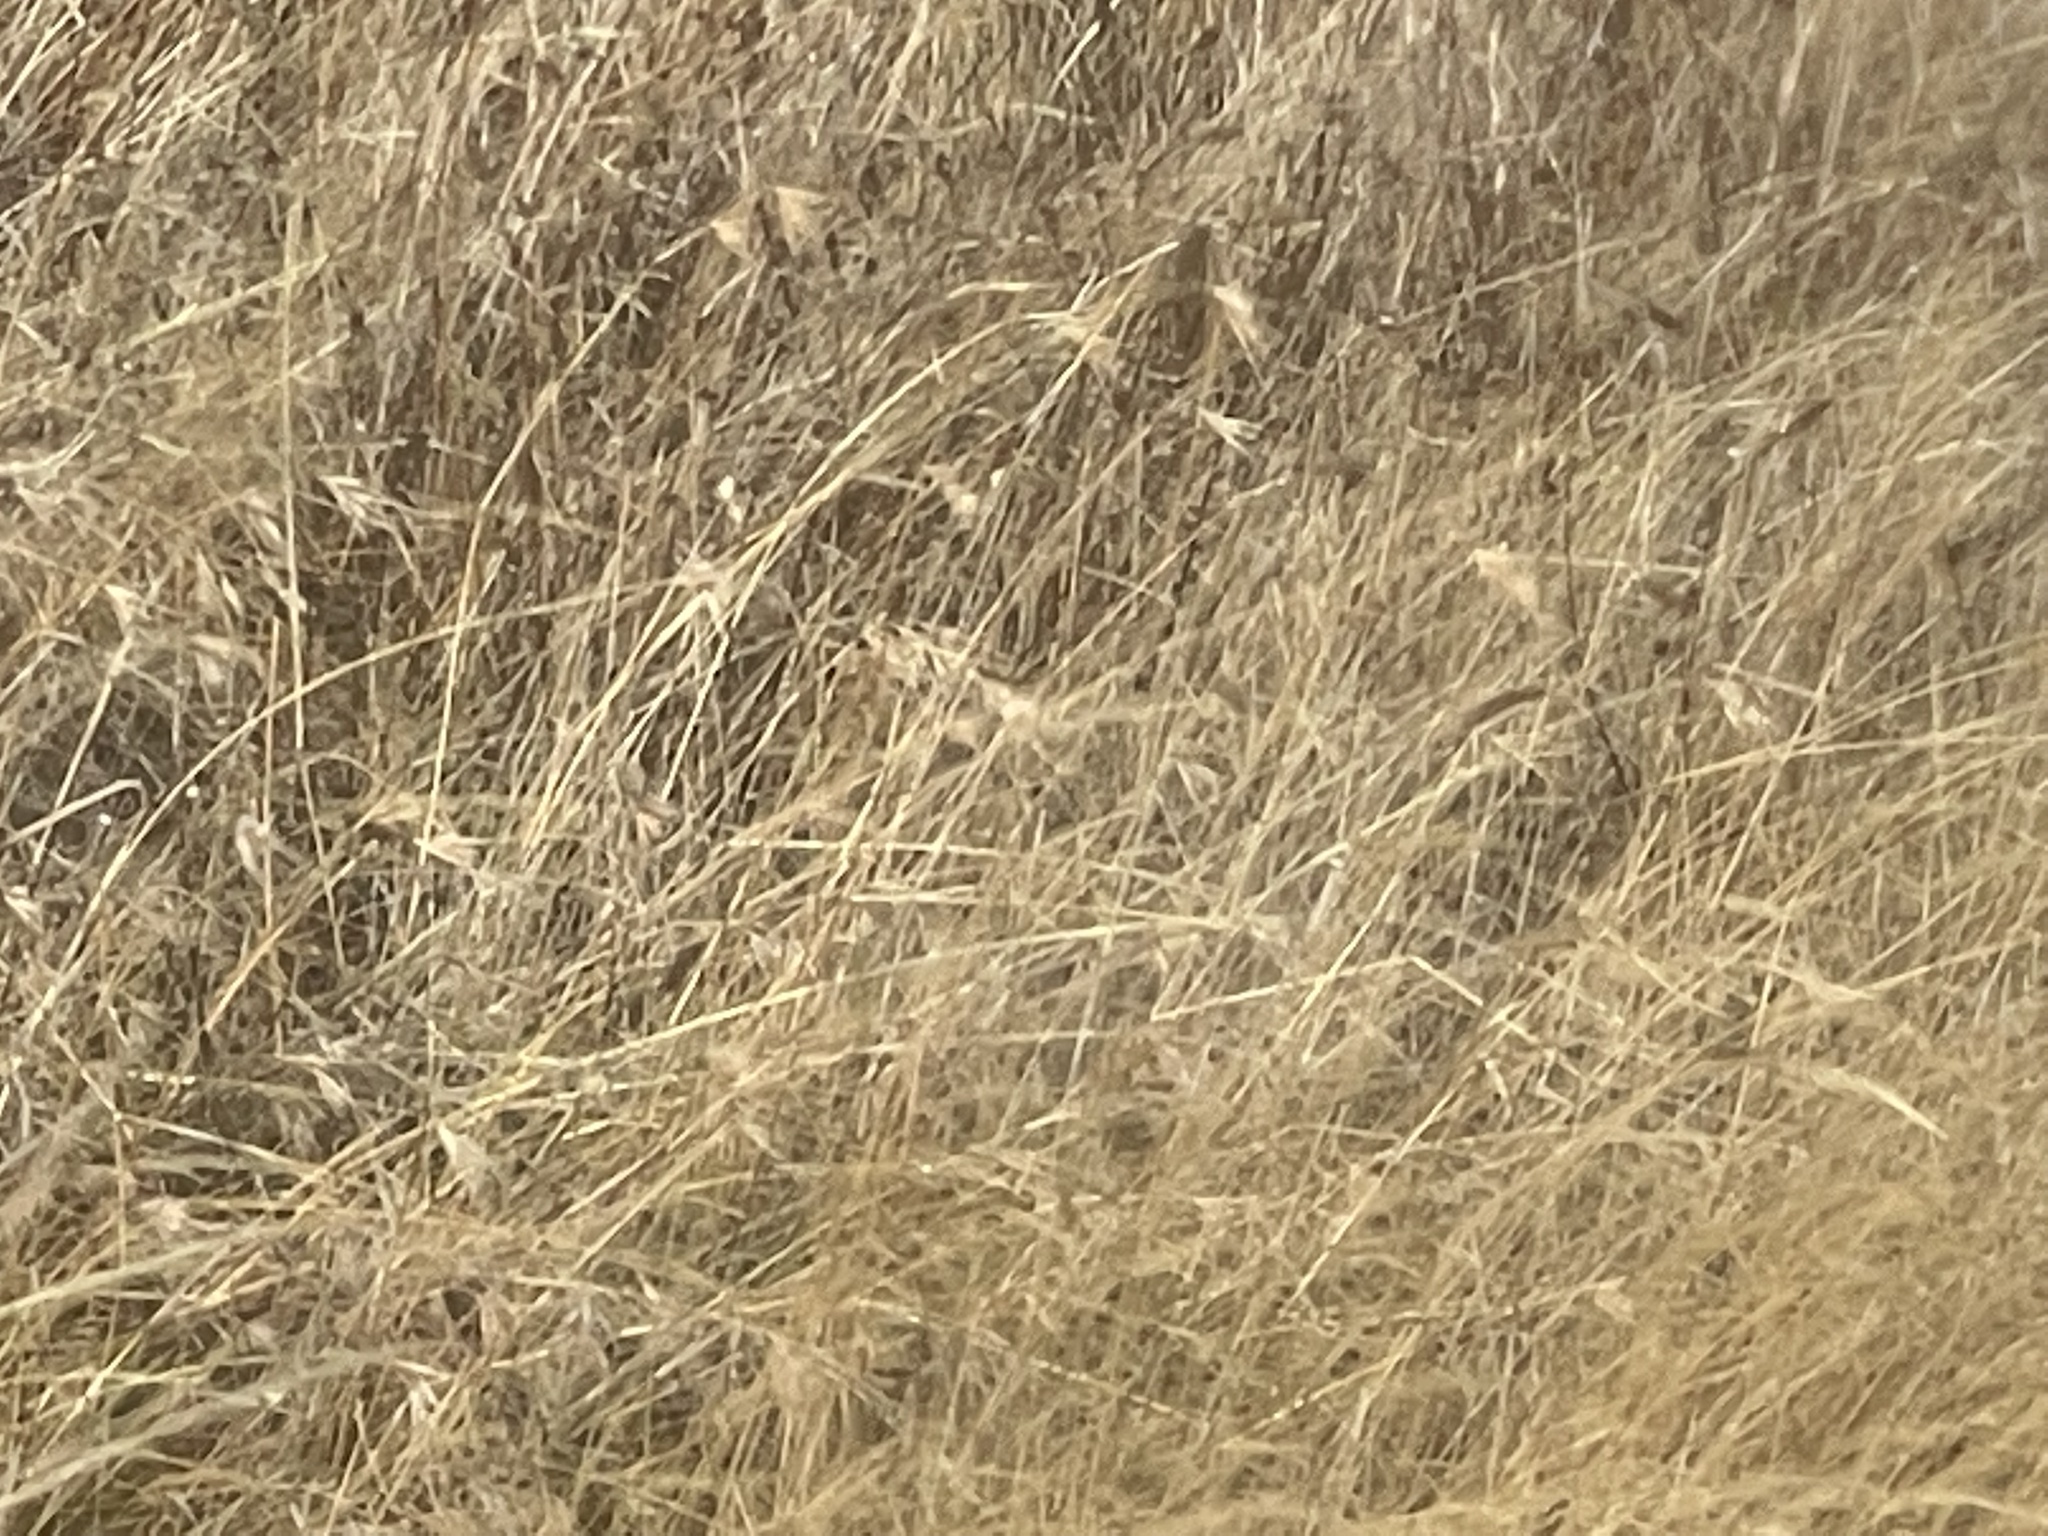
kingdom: Plantae
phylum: Tracheophyta
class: Liliopsida
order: Poales
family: Poaceae
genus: Themeda
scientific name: Themeda triandra
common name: Kangaroo grass
